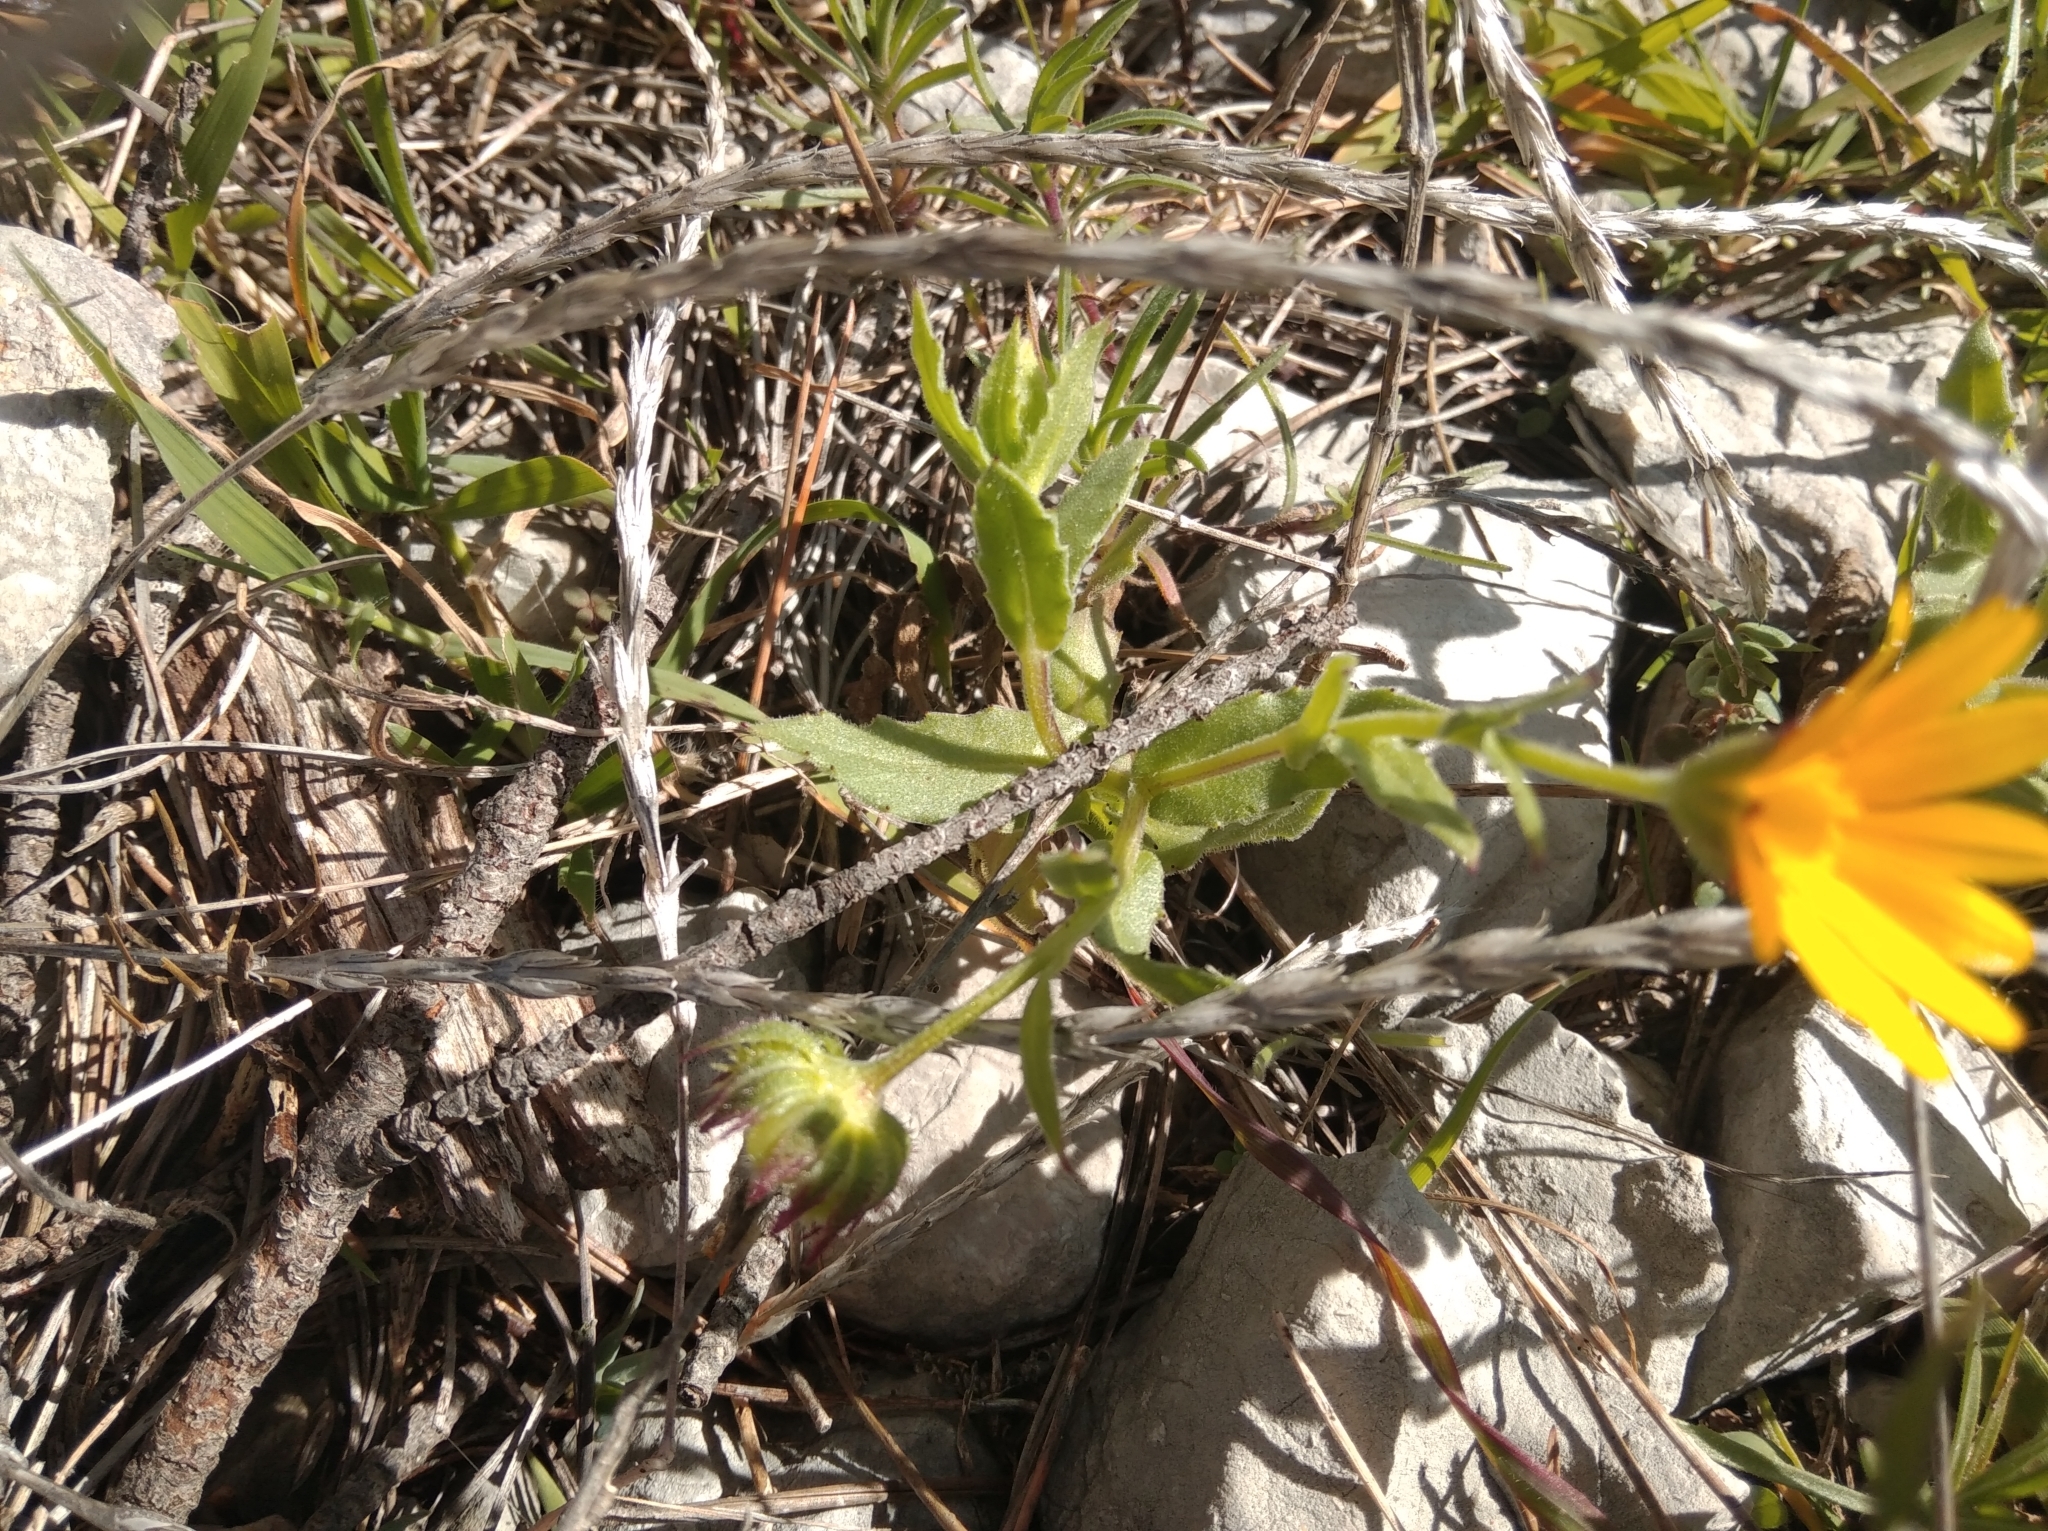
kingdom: Plantae
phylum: Tracheophyta
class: Magnoliopsida
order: Asterales
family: Asteraceae
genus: Calendula
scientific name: Calendula arvensis
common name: Field marigold
